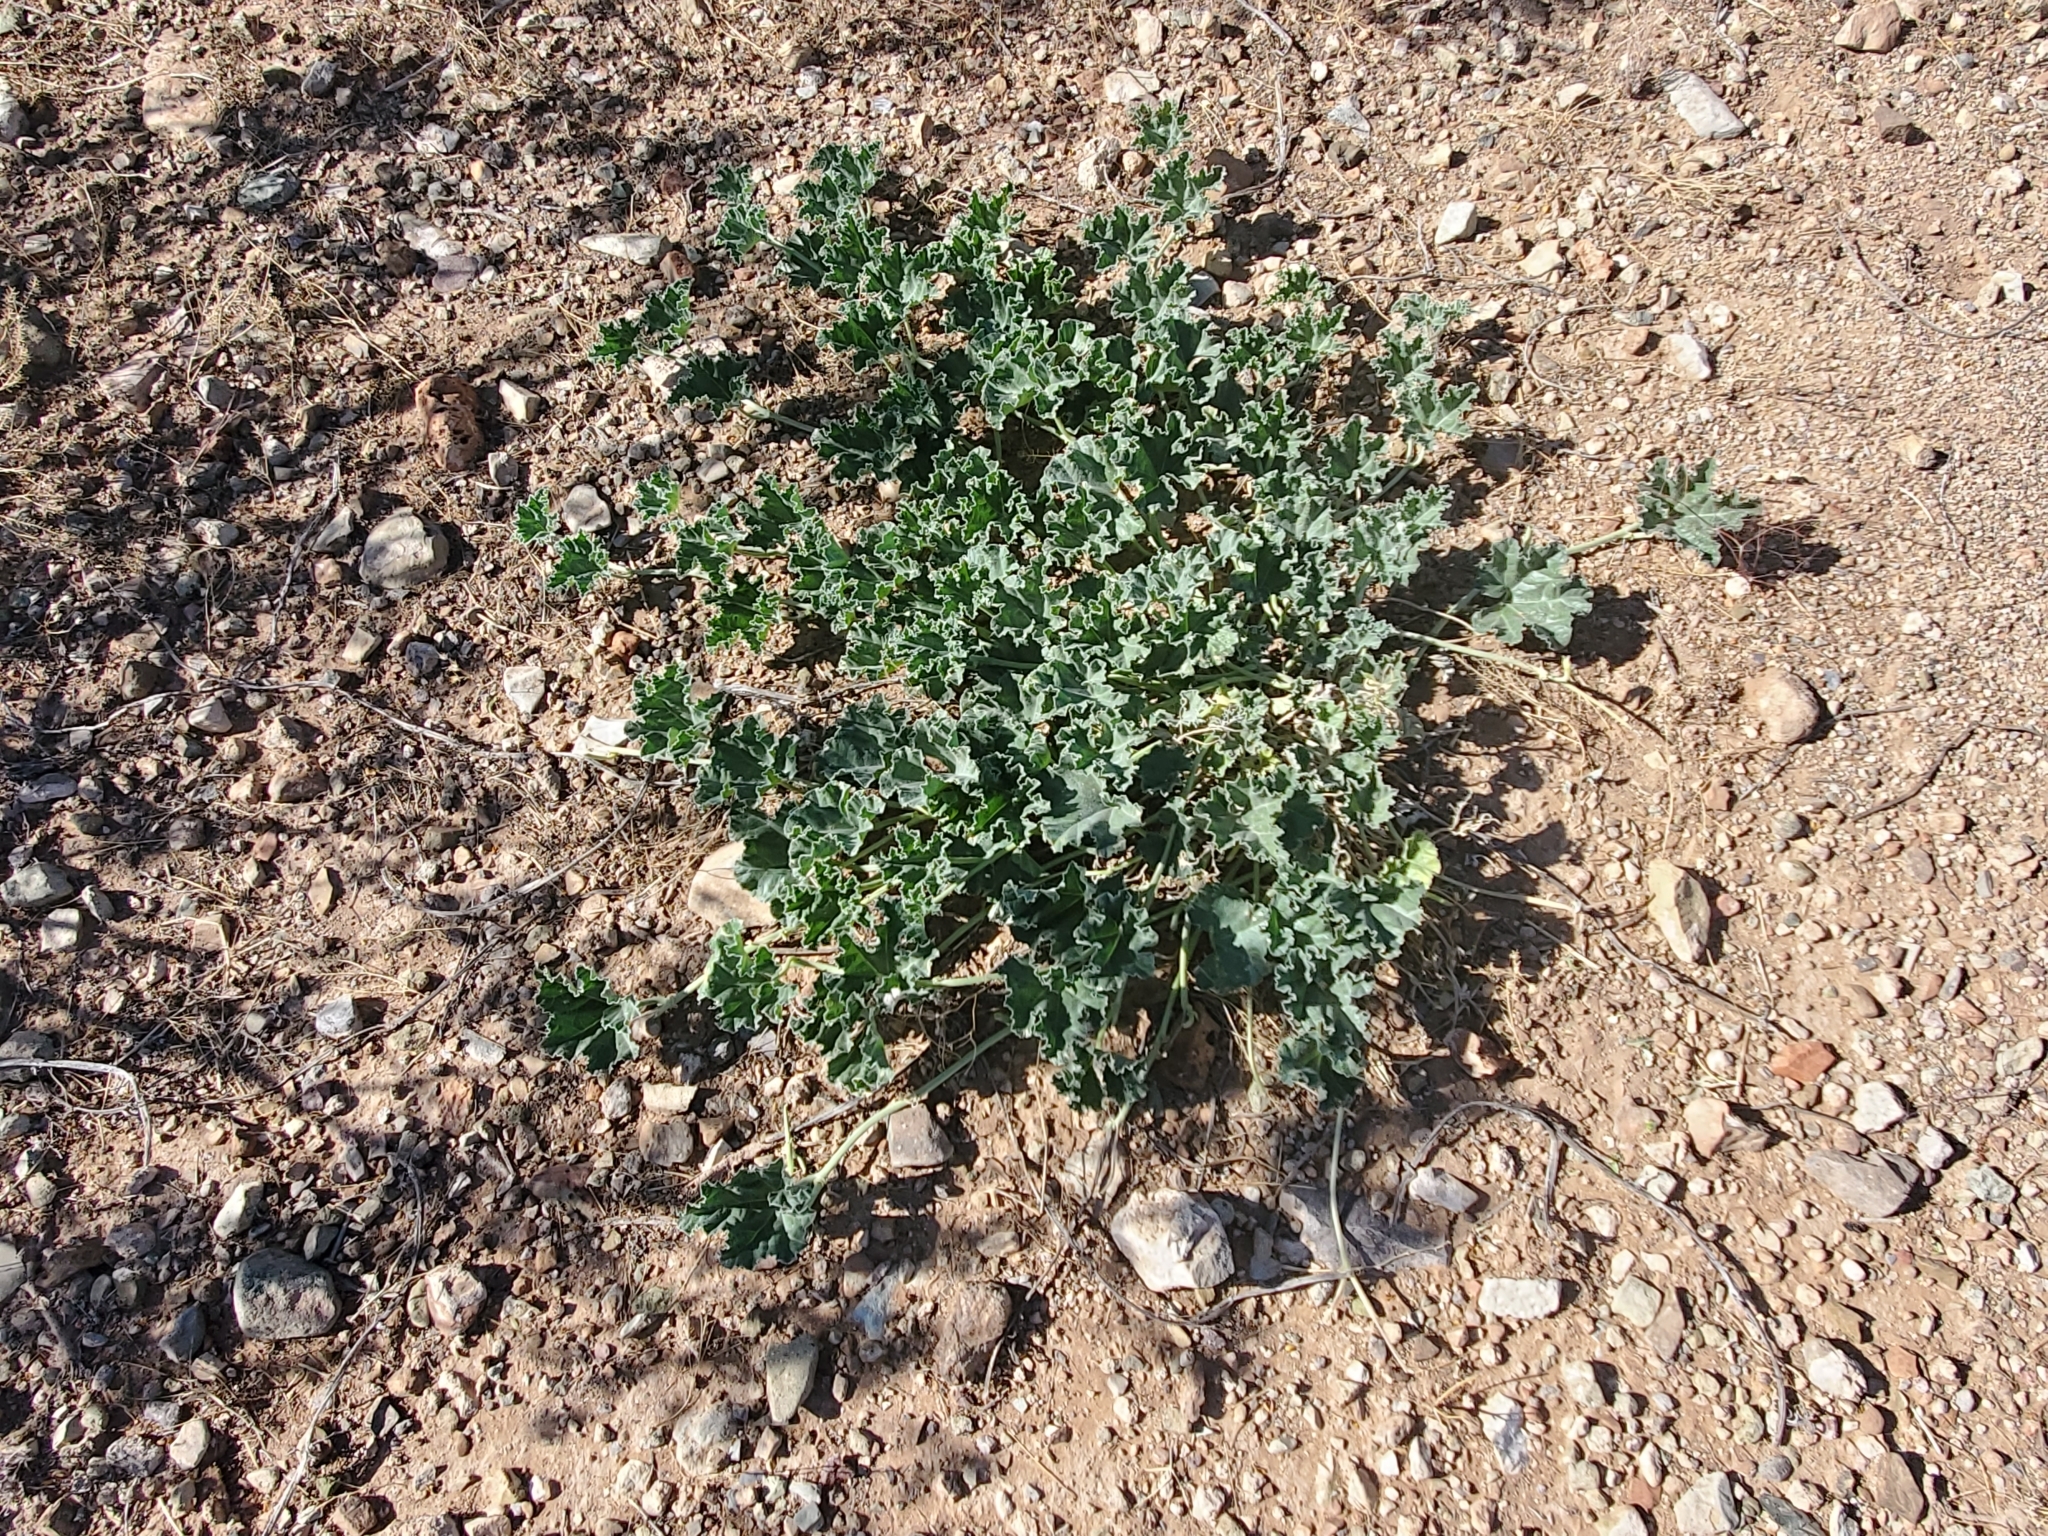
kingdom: Plantae
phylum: Tracheophyta
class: Magnoliopsida
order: Cucurbitales
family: Cucurbitaceae
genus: Apodanthera
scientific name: Apodanthera undulata
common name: Melon-loco
